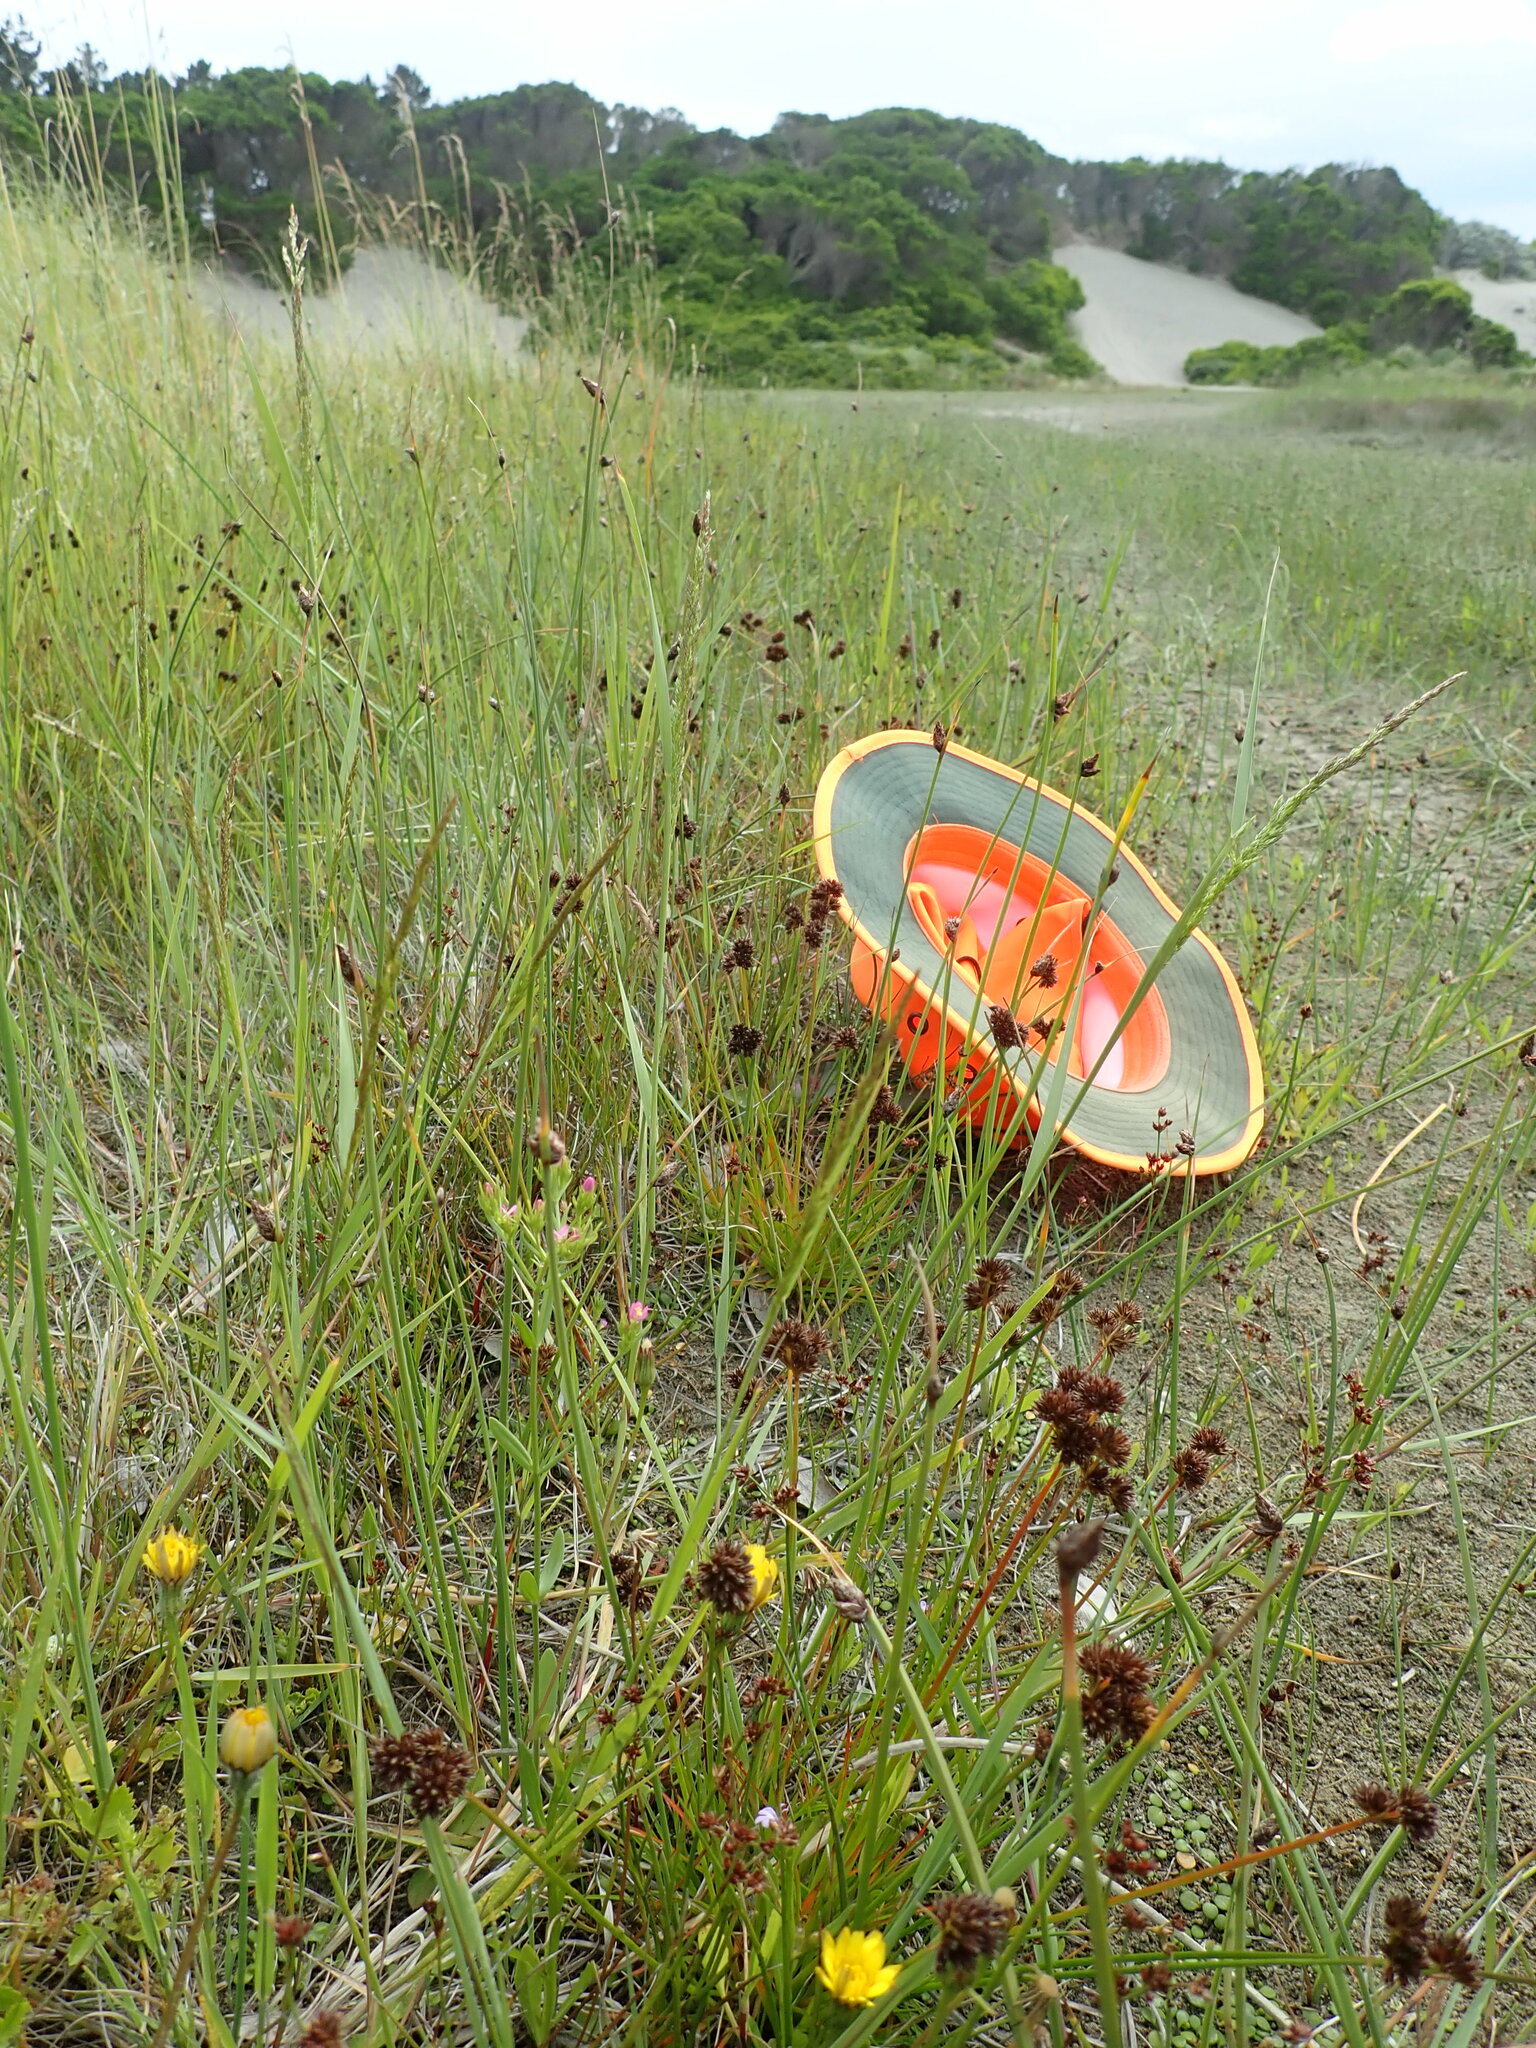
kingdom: Plantae
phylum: Tracheophyta
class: Liliopsida
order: Poales
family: Juncaceae
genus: Juncus
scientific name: Juncus caespiticius
